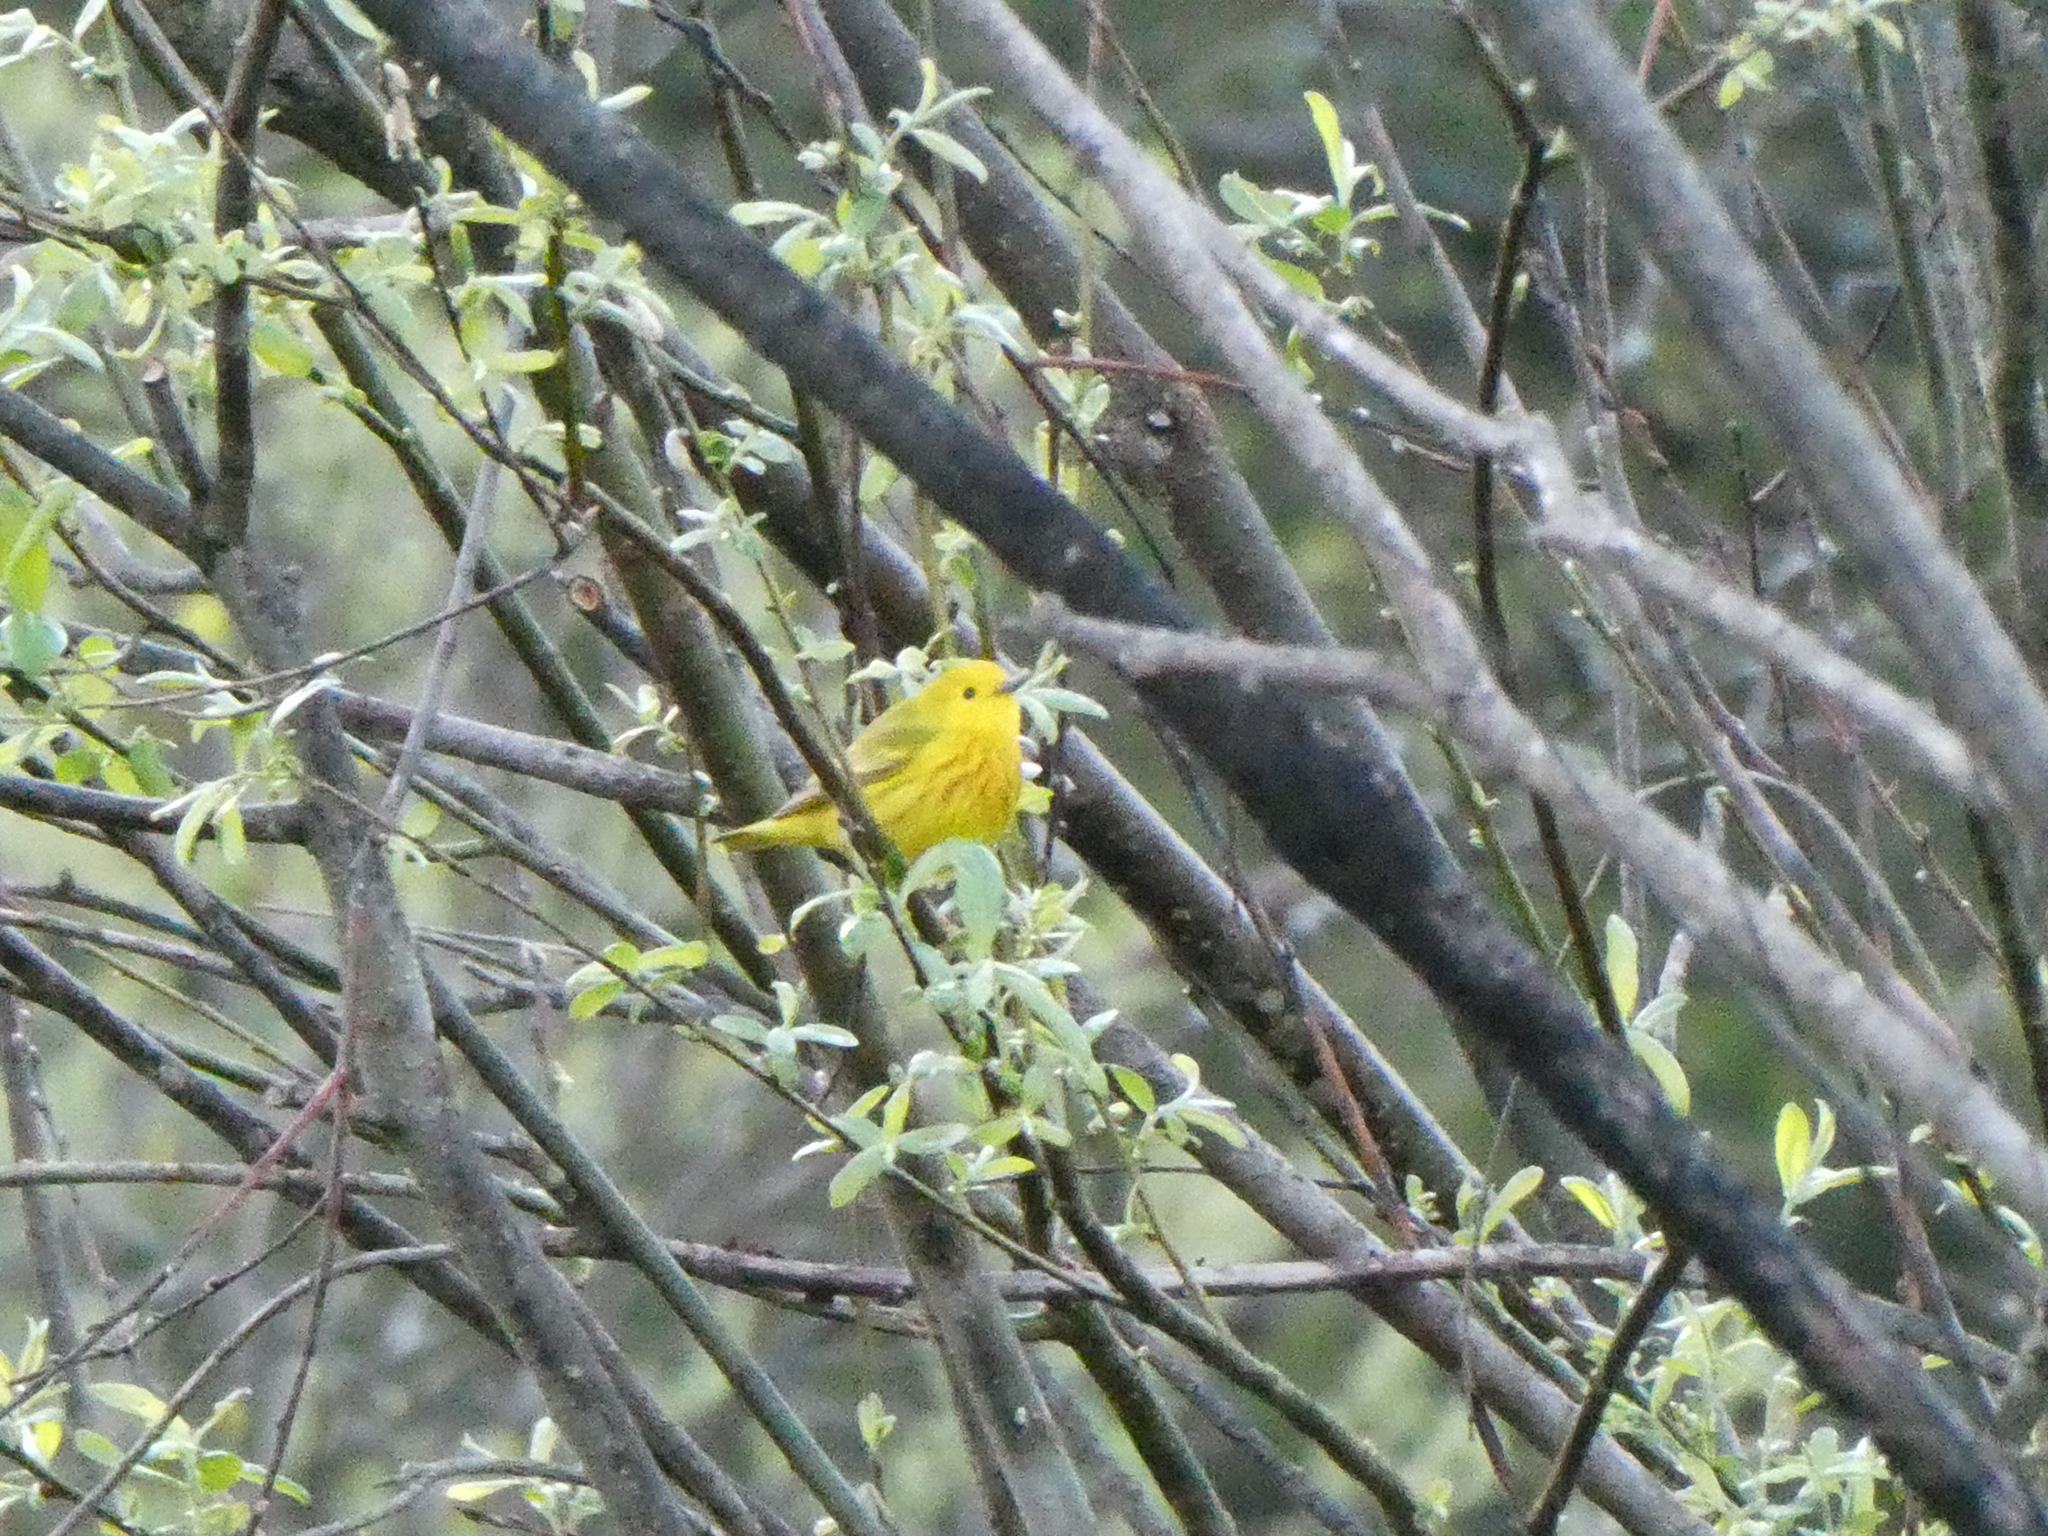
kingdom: Animalia
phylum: Chordata
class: Aves
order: Passeriformes
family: Parulidae
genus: Setophaga
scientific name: Setophaga petechia
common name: Yellow warbler
